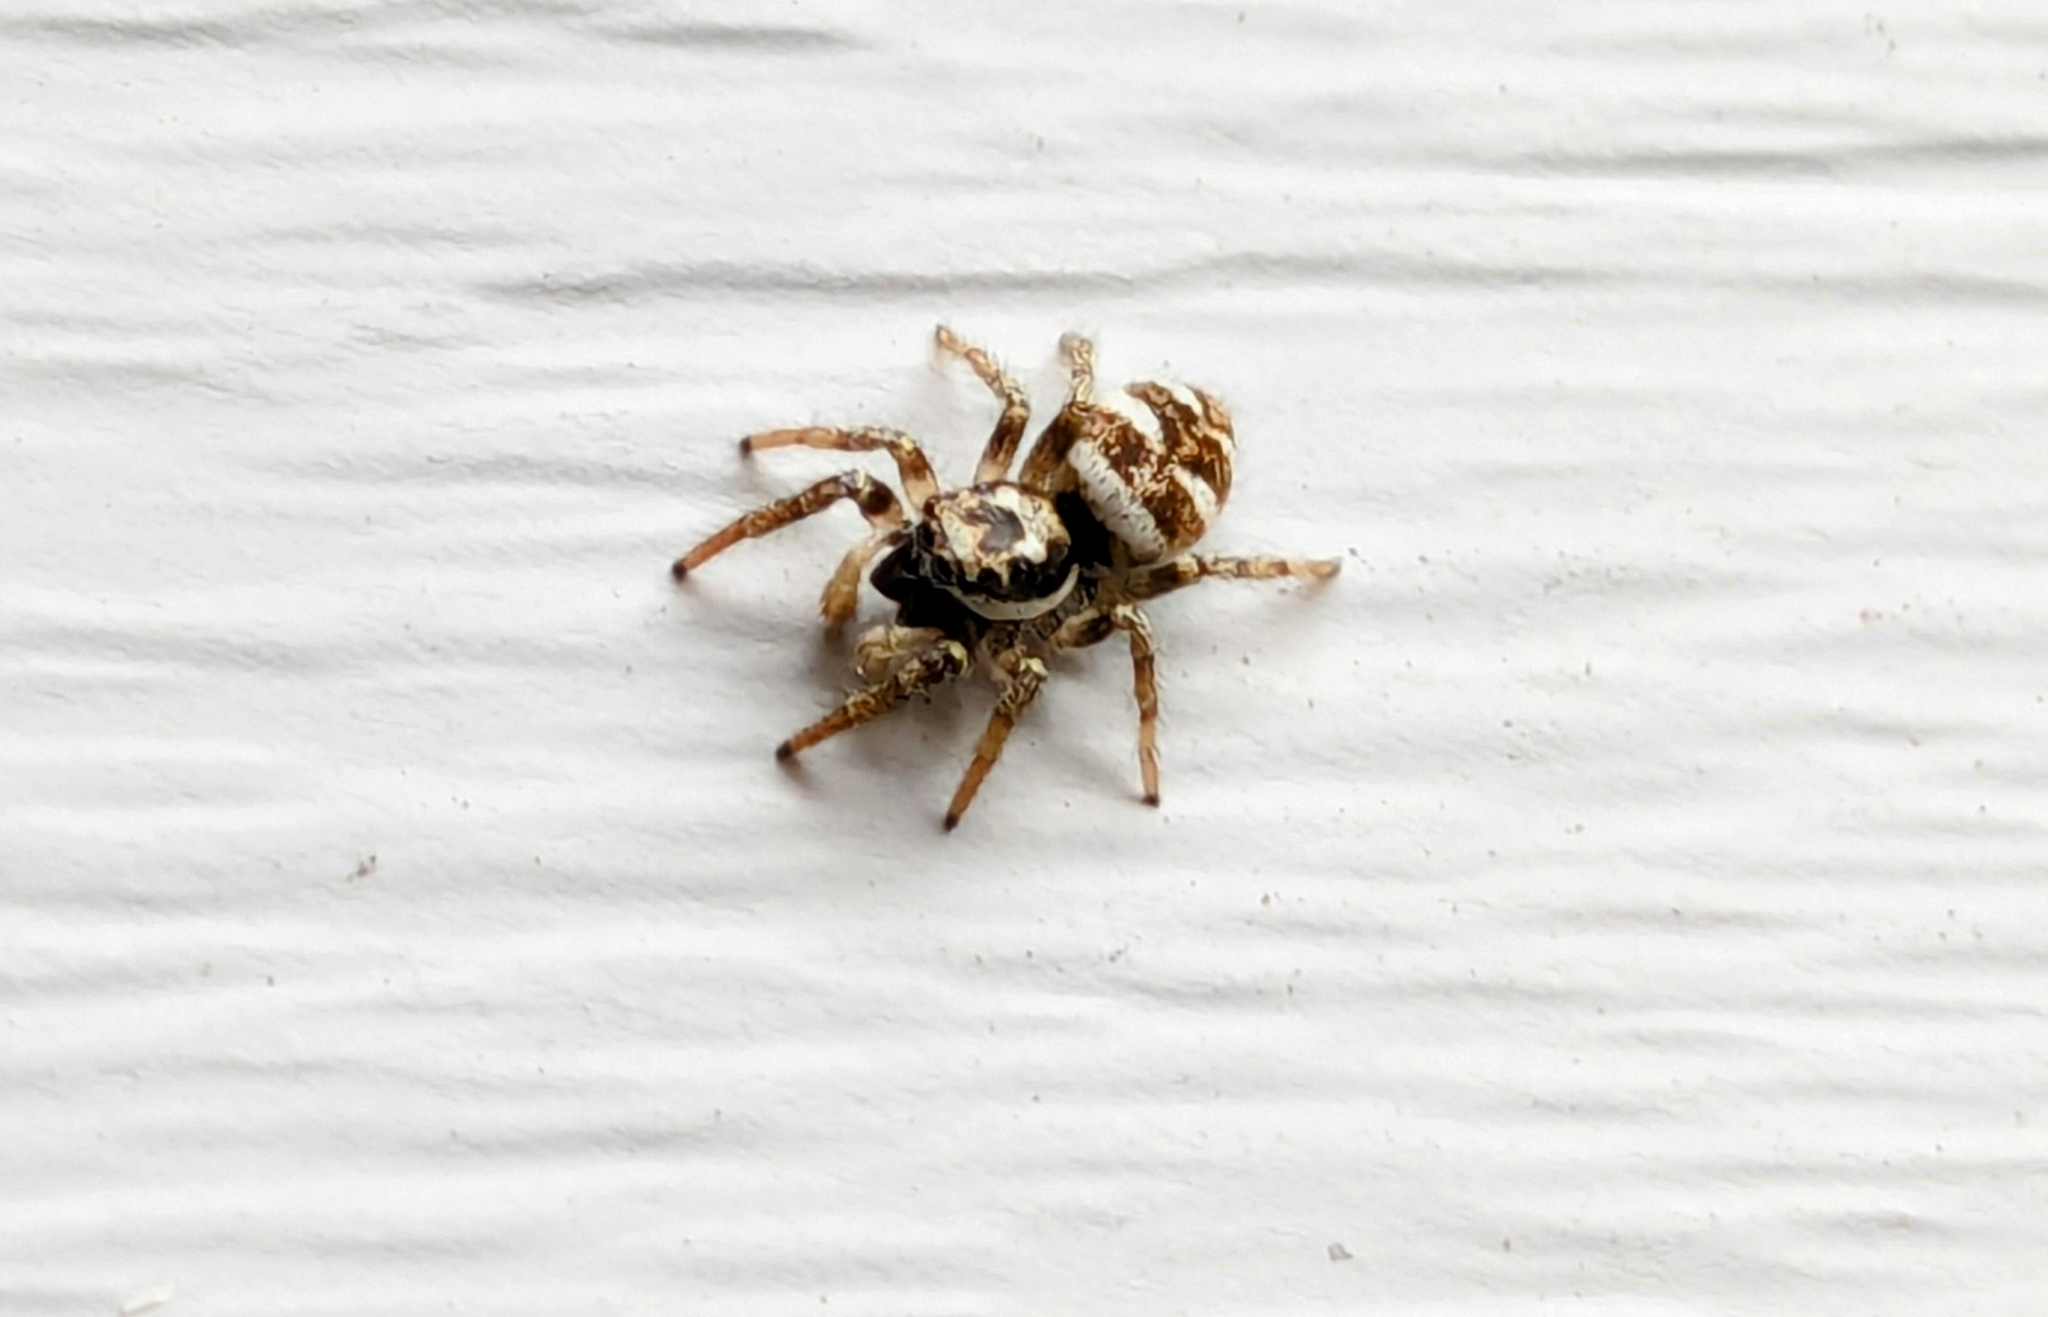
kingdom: Animalia
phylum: Arthropoda
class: Arachnida
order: Araneae
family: Salticidae
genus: Salticus
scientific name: Salticus scenicus
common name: Zebra jumper
